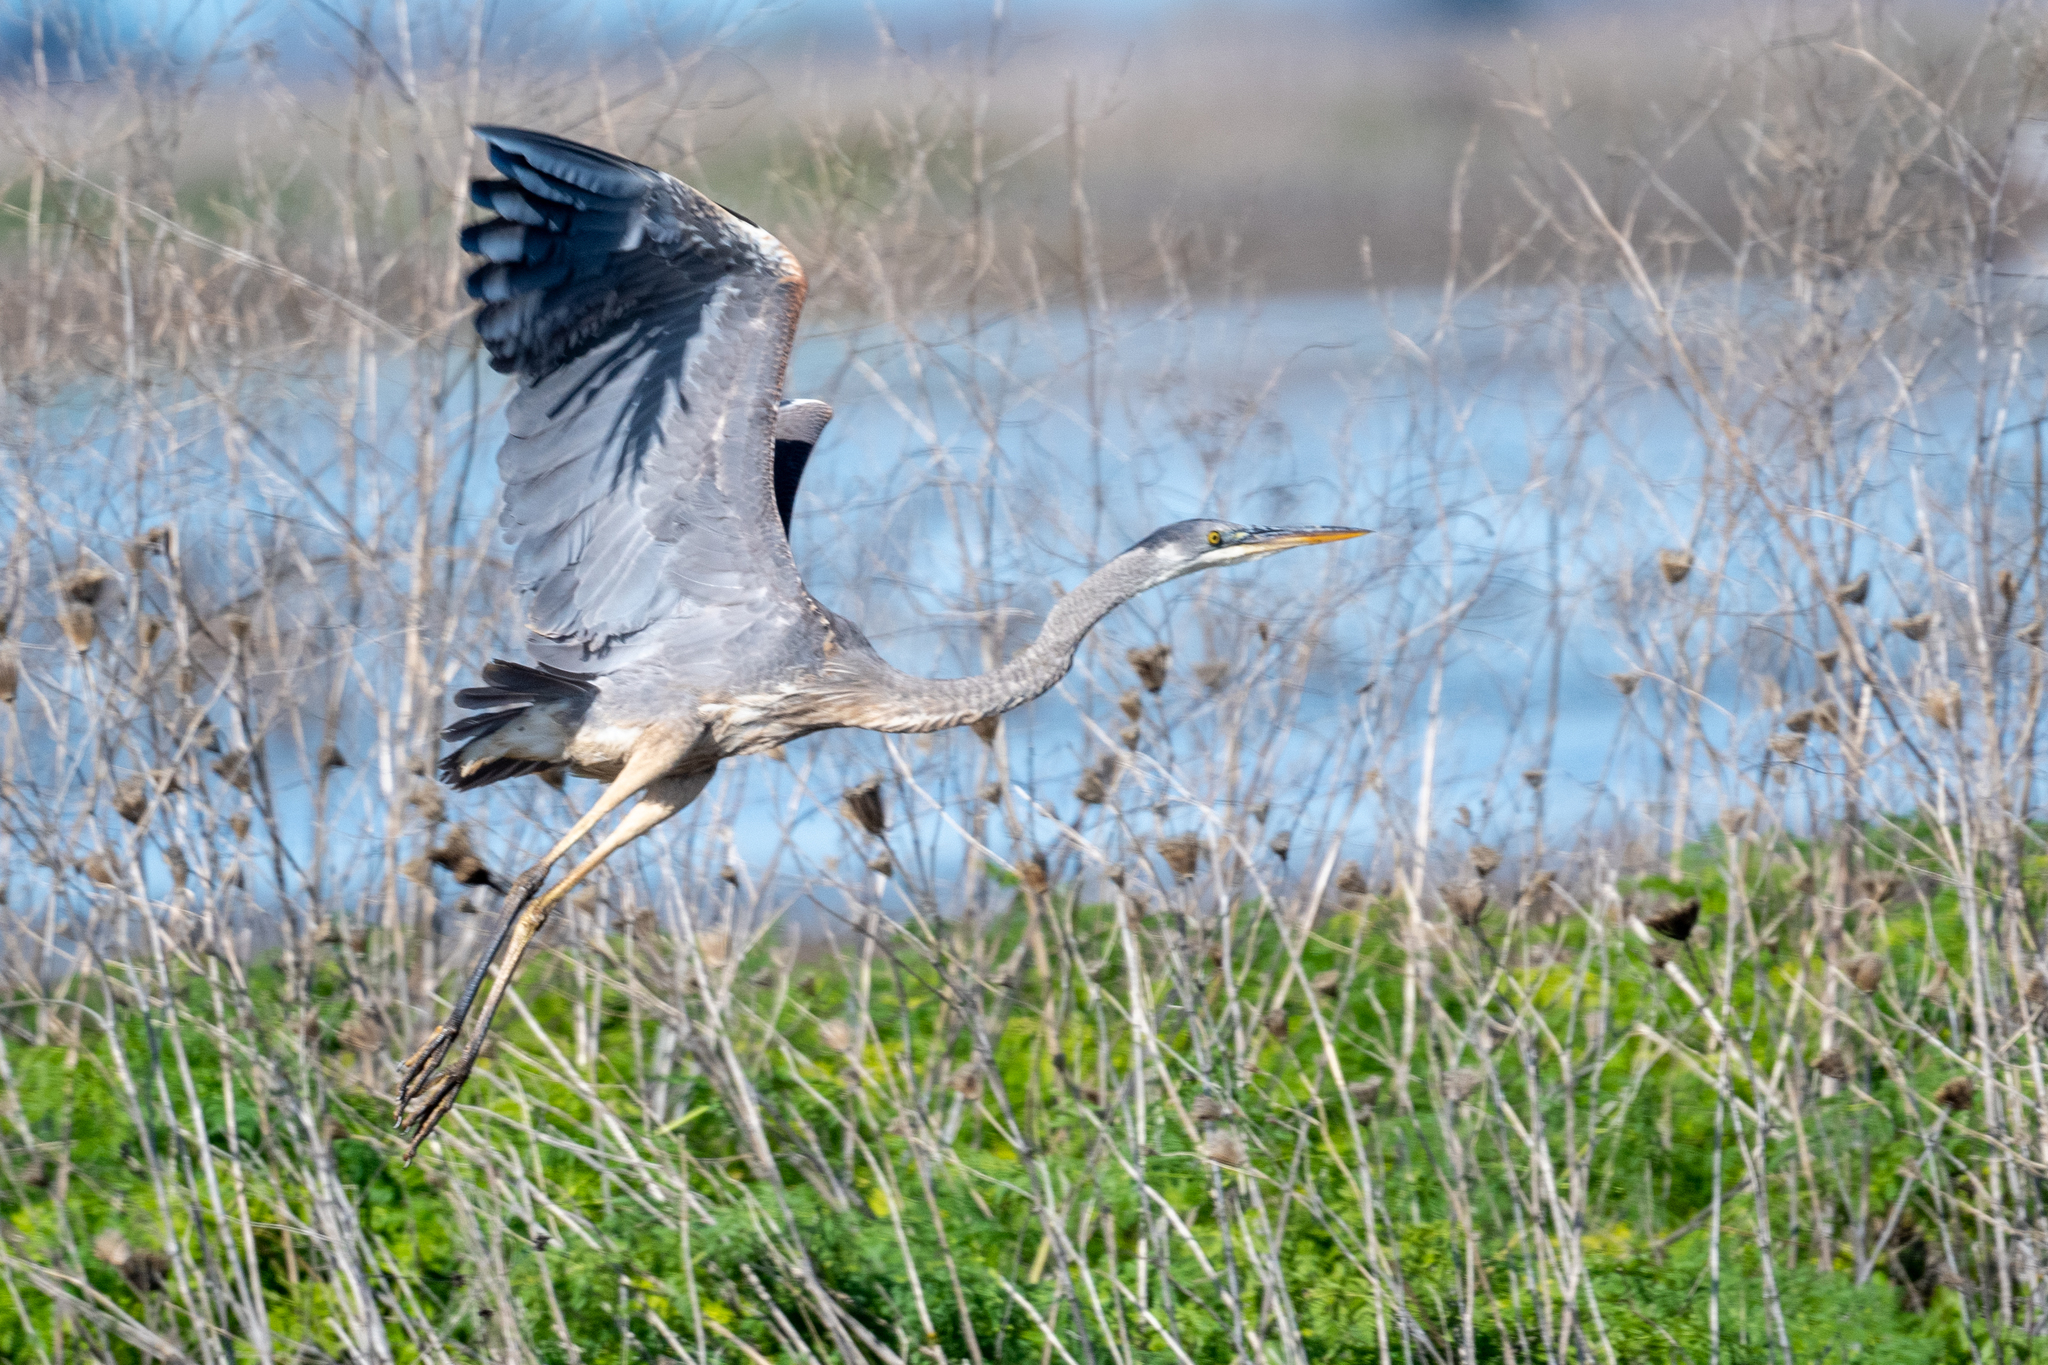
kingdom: Animalia
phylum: Chordata
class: Aves
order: Pelecaniformes
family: Ardeidae
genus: Ardea
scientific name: Ardea herodias
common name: Great blue heron
